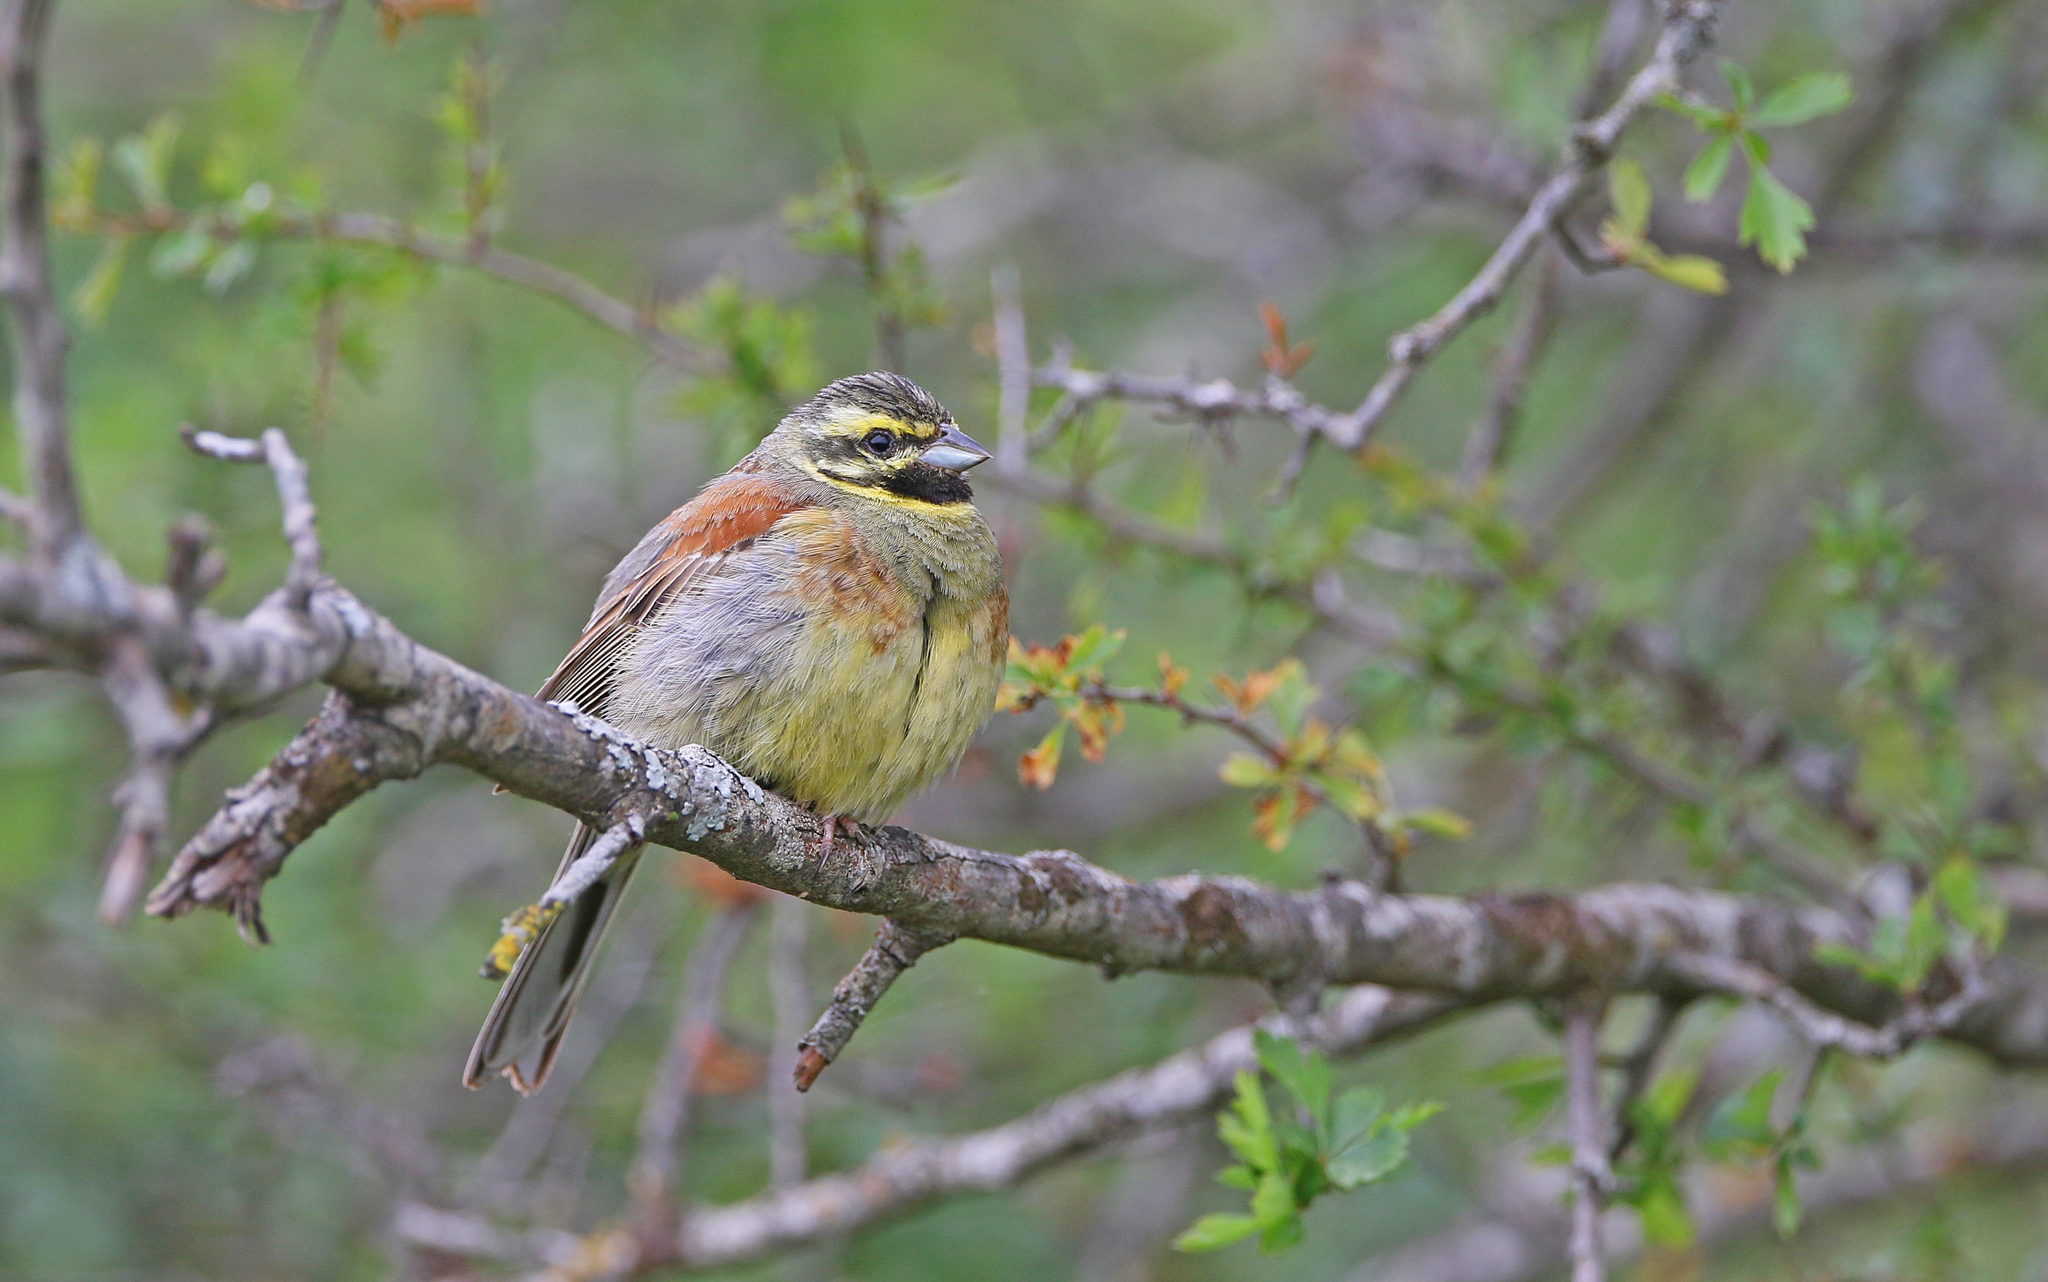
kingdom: Animalia
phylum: Chordata
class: Aves
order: Passeriformes
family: Emberizidae
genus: Emberiza
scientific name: Emberiza cirlus
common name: Cirl bunting
